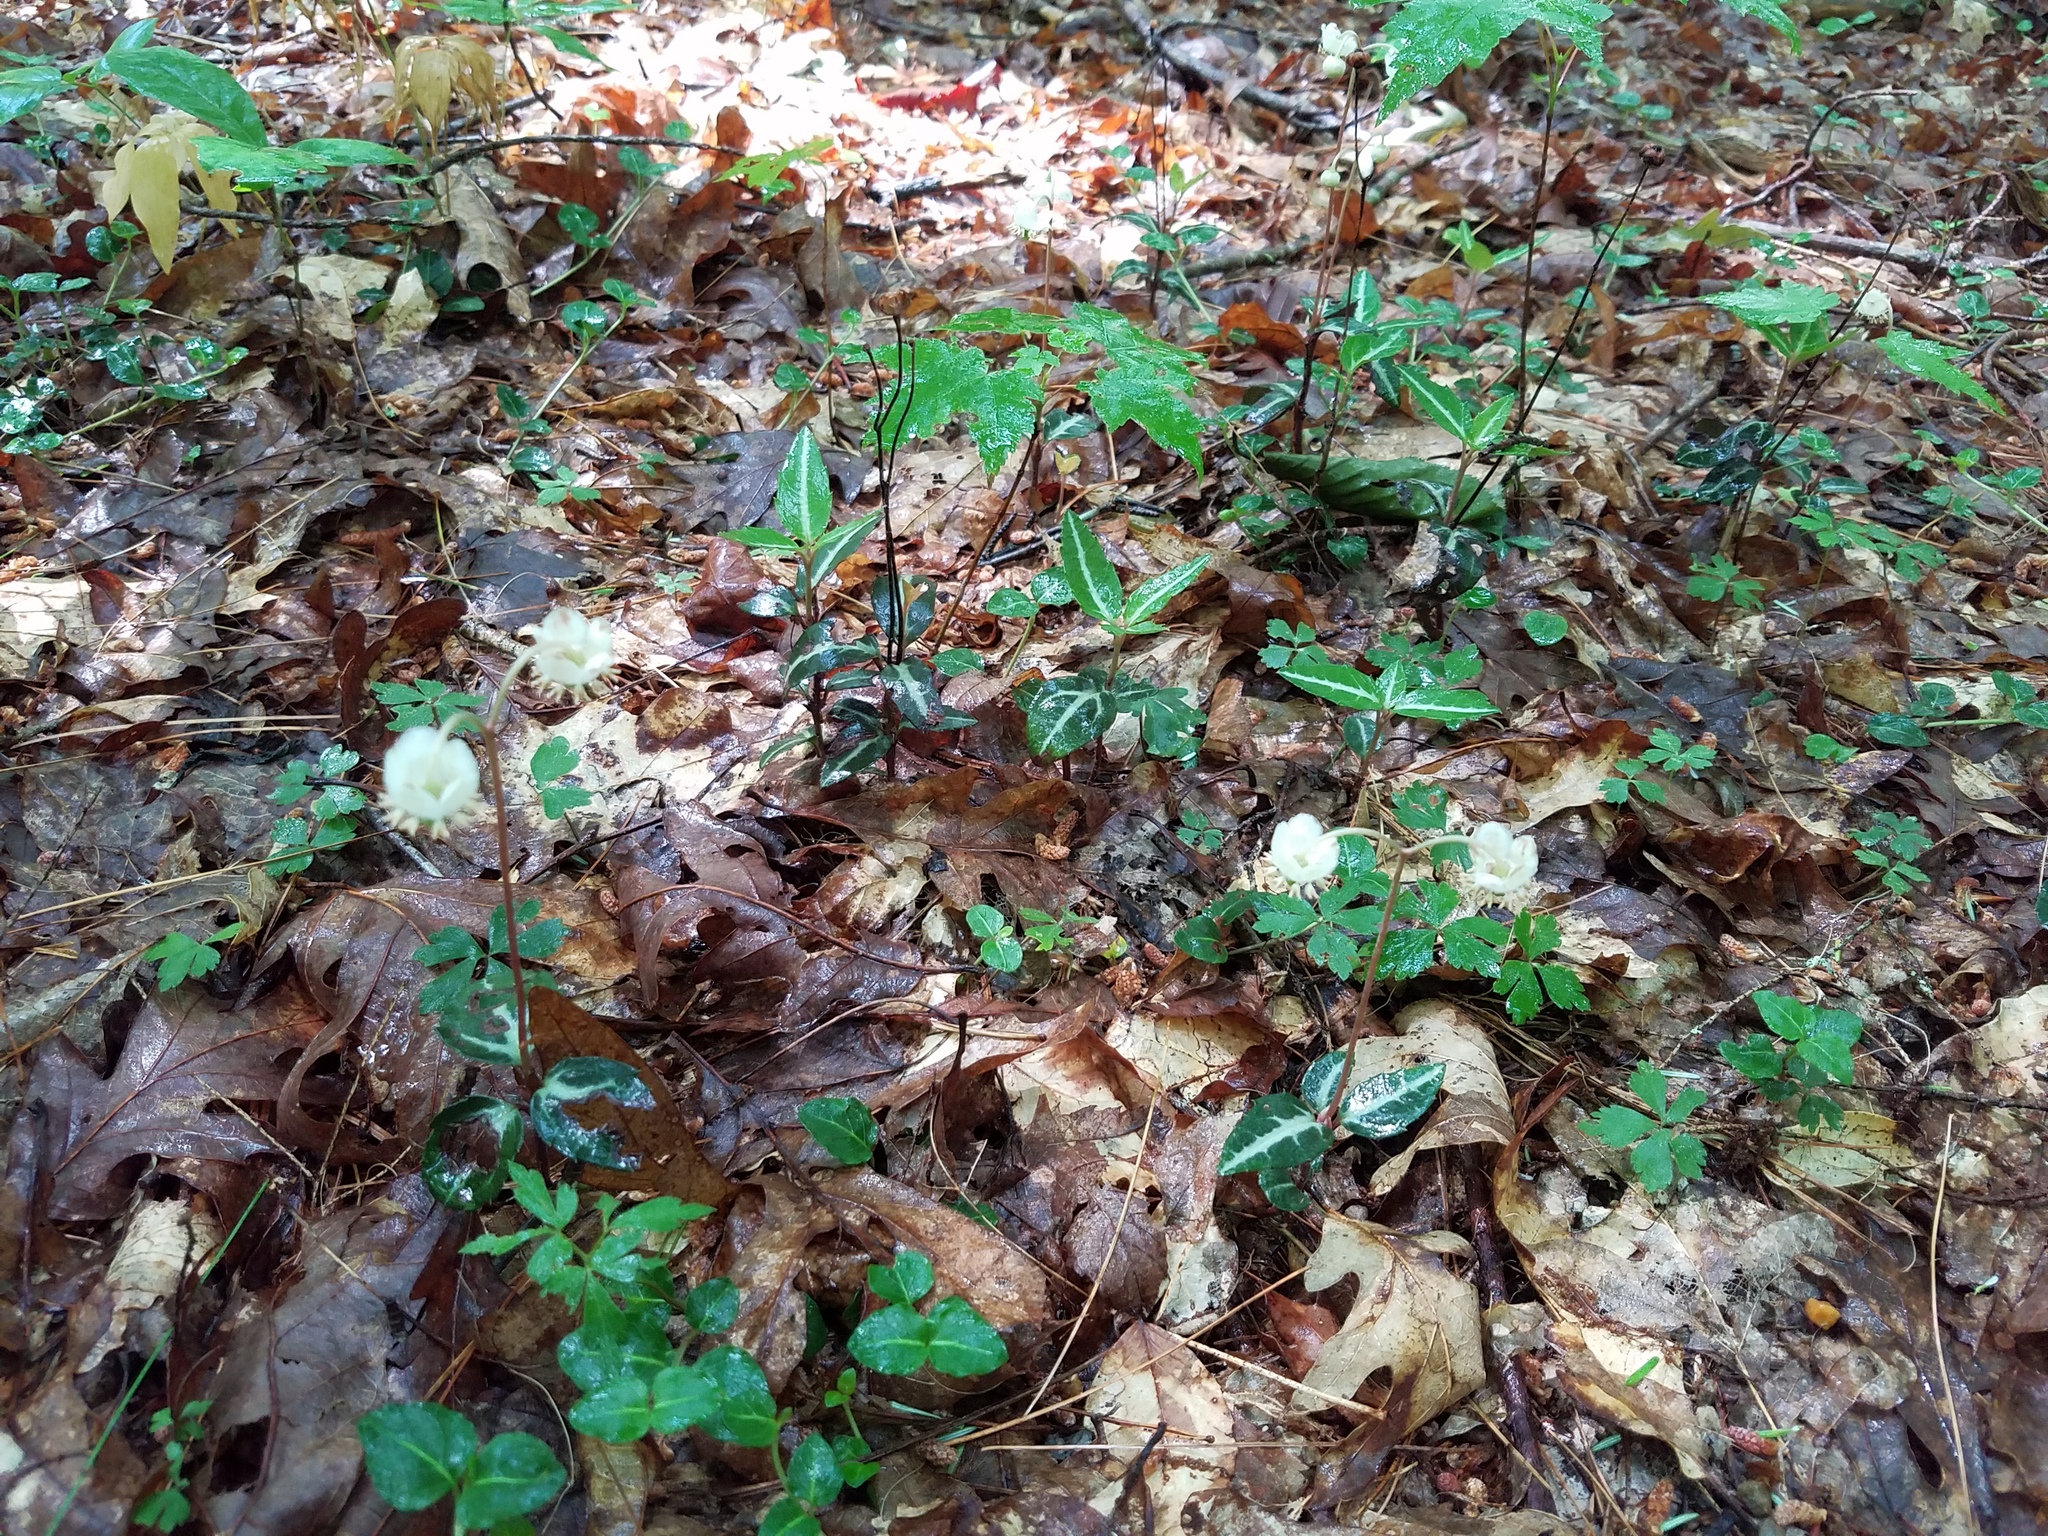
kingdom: Plantae
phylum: Tracheophyta
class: Magnoliopsida
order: Ericales
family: Ericaceae
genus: Chimaphila
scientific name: Chimaphila maculata
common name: Spotted pipsissewa
